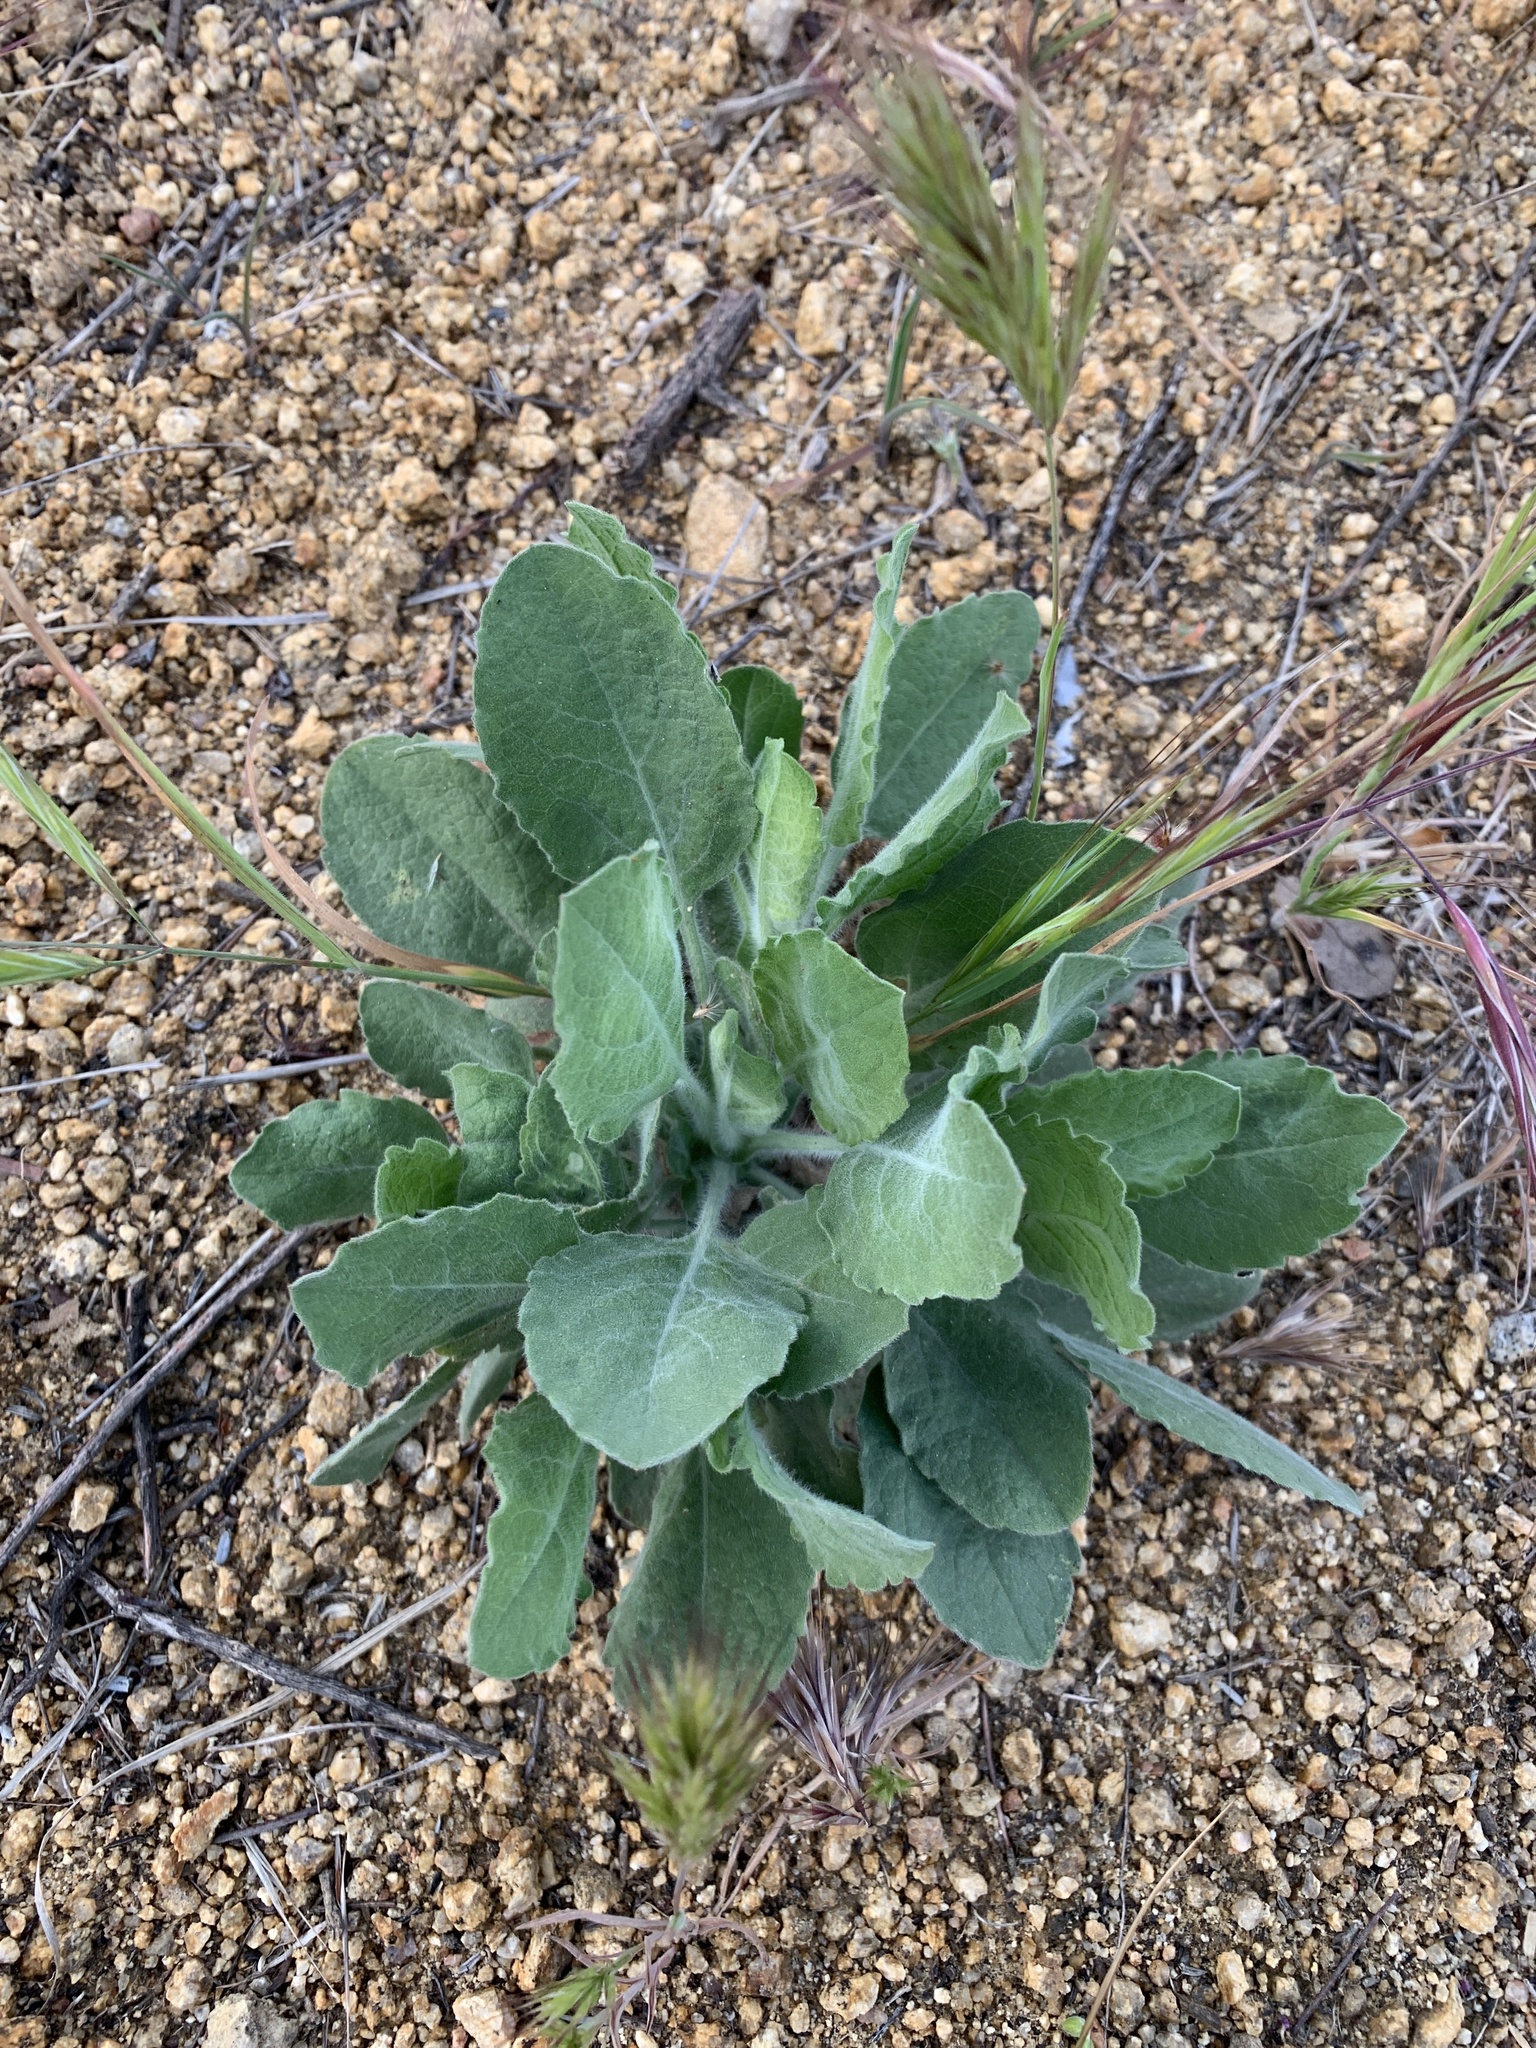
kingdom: Plantae
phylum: Tracheophyta
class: Magnoliopsida
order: Asterales
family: Asteraceae
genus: Heterotheca
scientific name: Heterotheca grandiflora
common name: Telegraphweed
